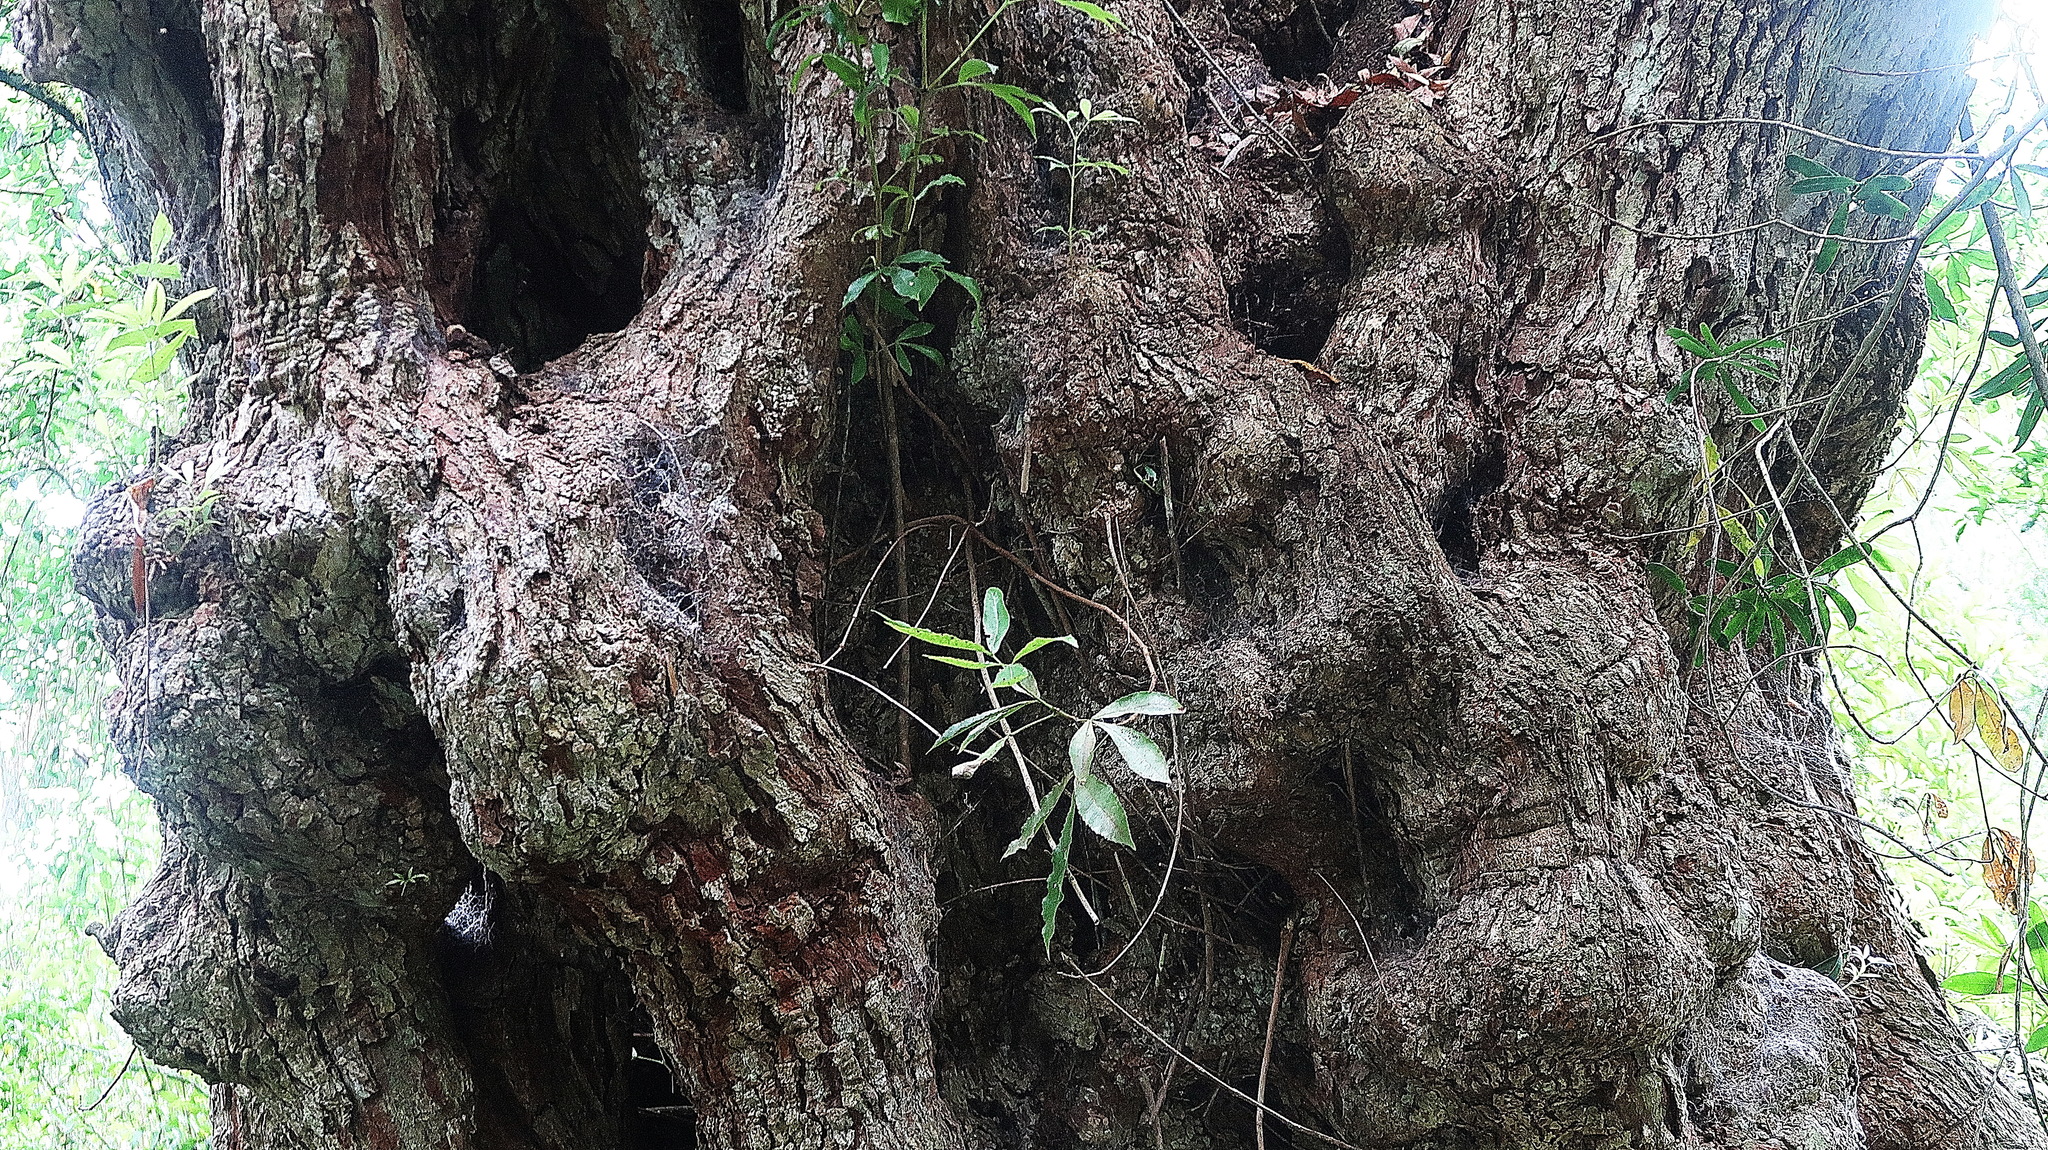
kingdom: Plantae
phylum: Tracheophyta
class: Magnoliopsida
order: Oxalidales
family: Cunoniaceae
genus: Platylophus
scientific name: Platylophus trifoliatus
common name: White alder
